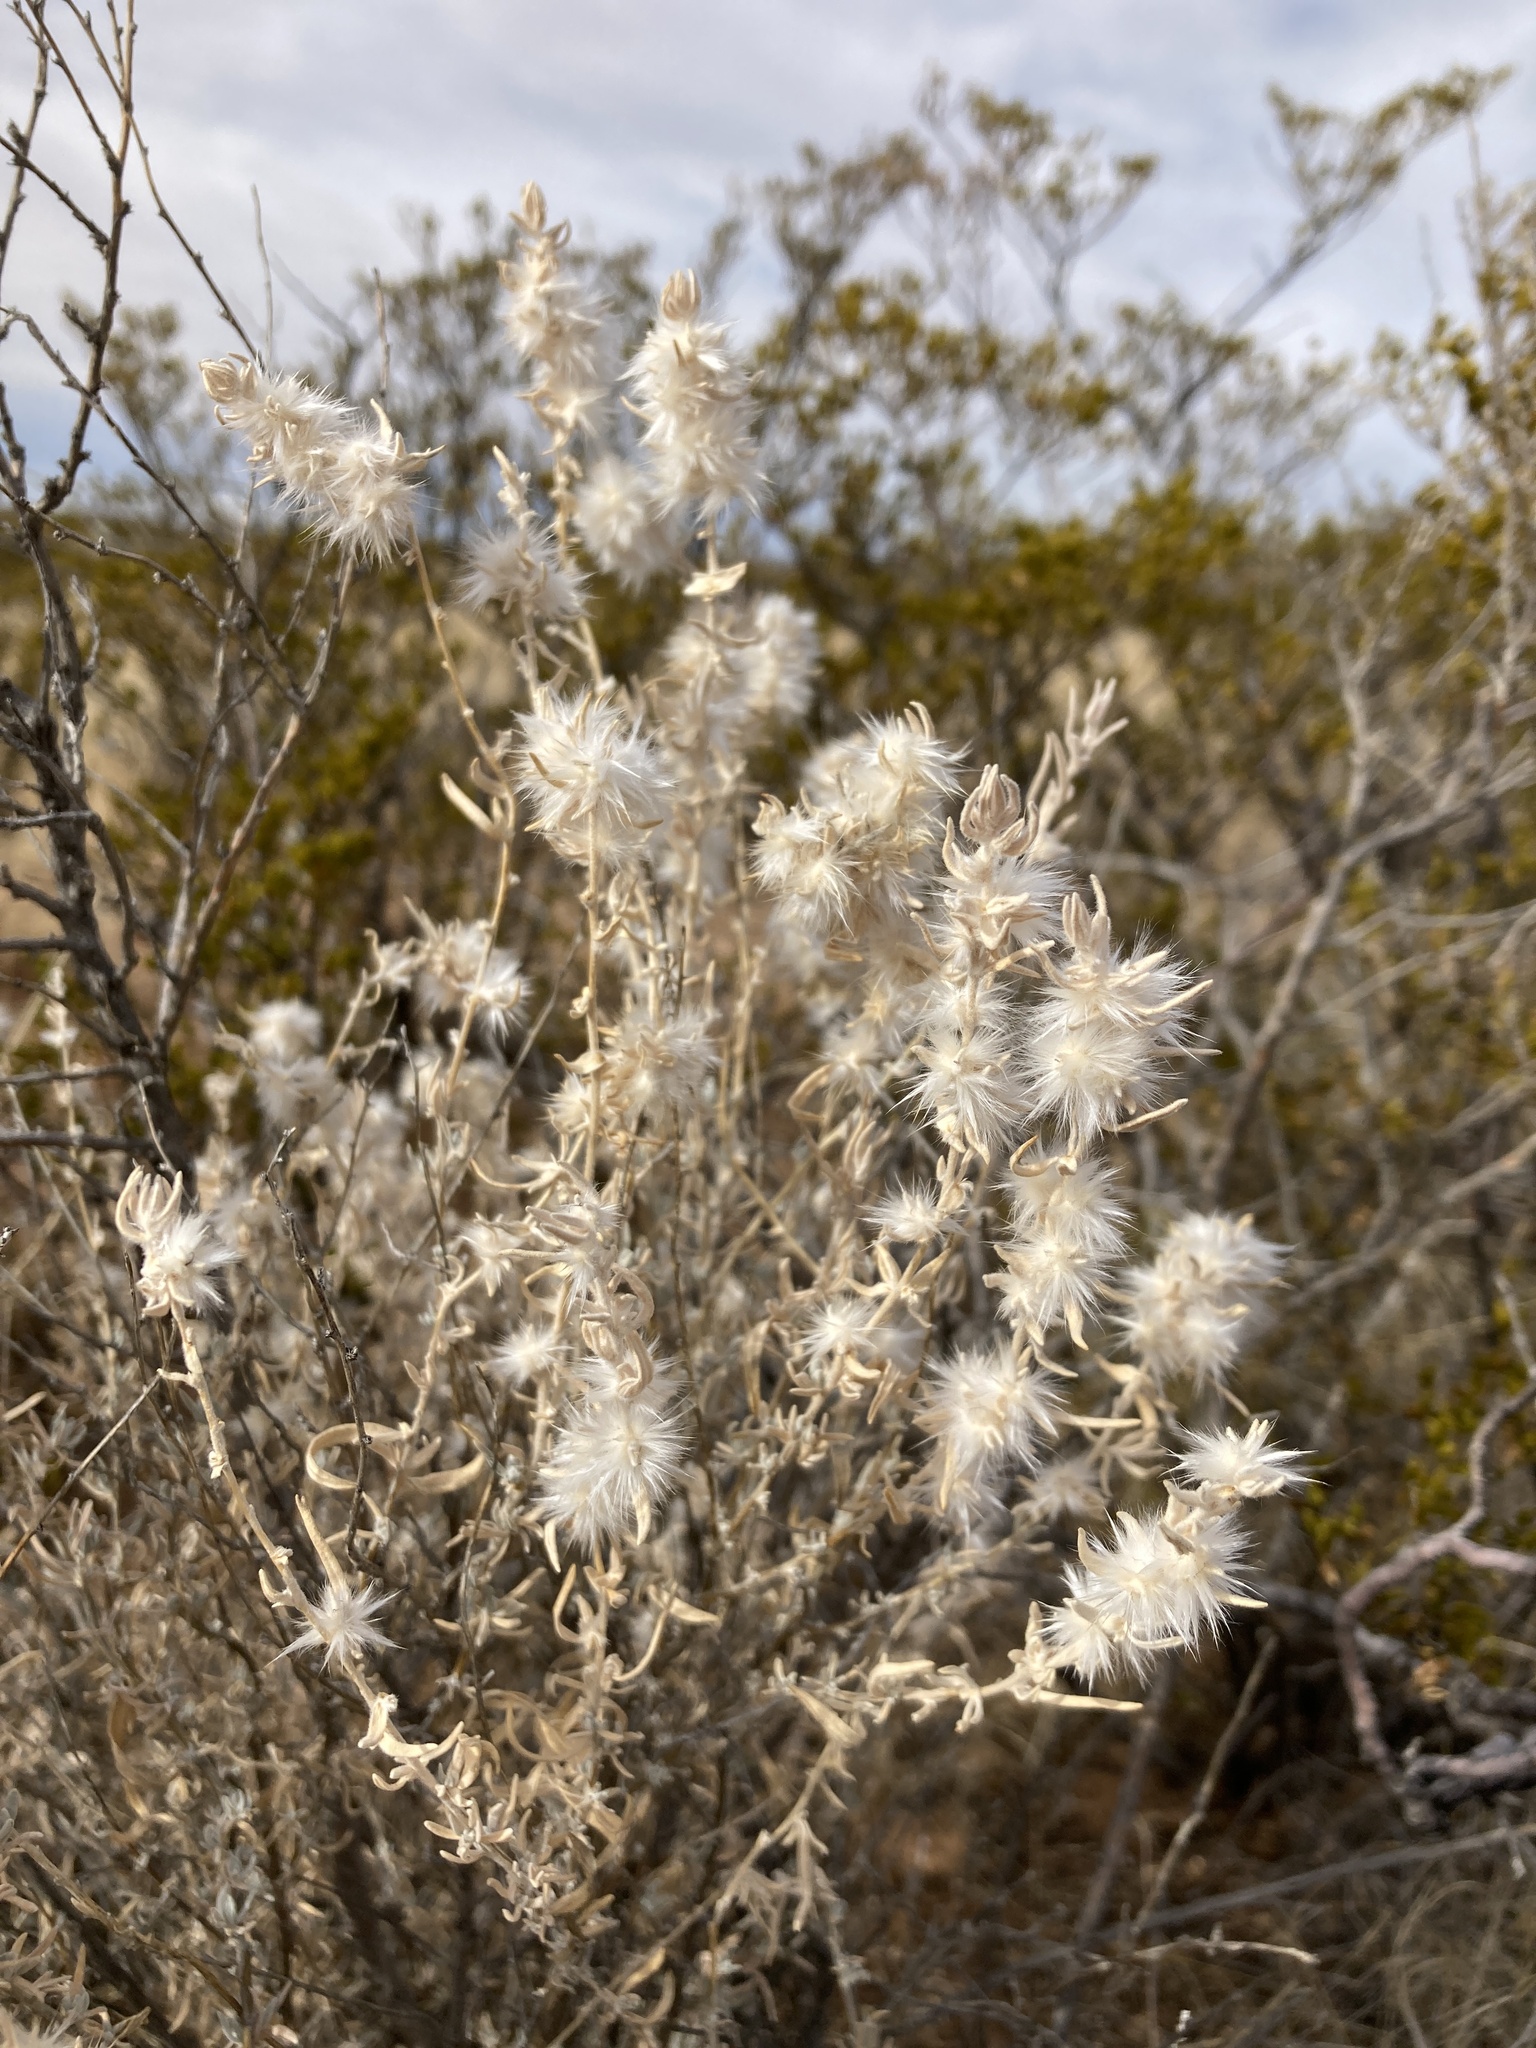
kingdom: Plantae
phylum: Tracheophyta
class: Magnoliopsida
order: Caryophyllales
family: Amaranthaceae
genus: Krascheninnikovia
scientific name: Krascheninnikovia lanata
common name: Winterfat
